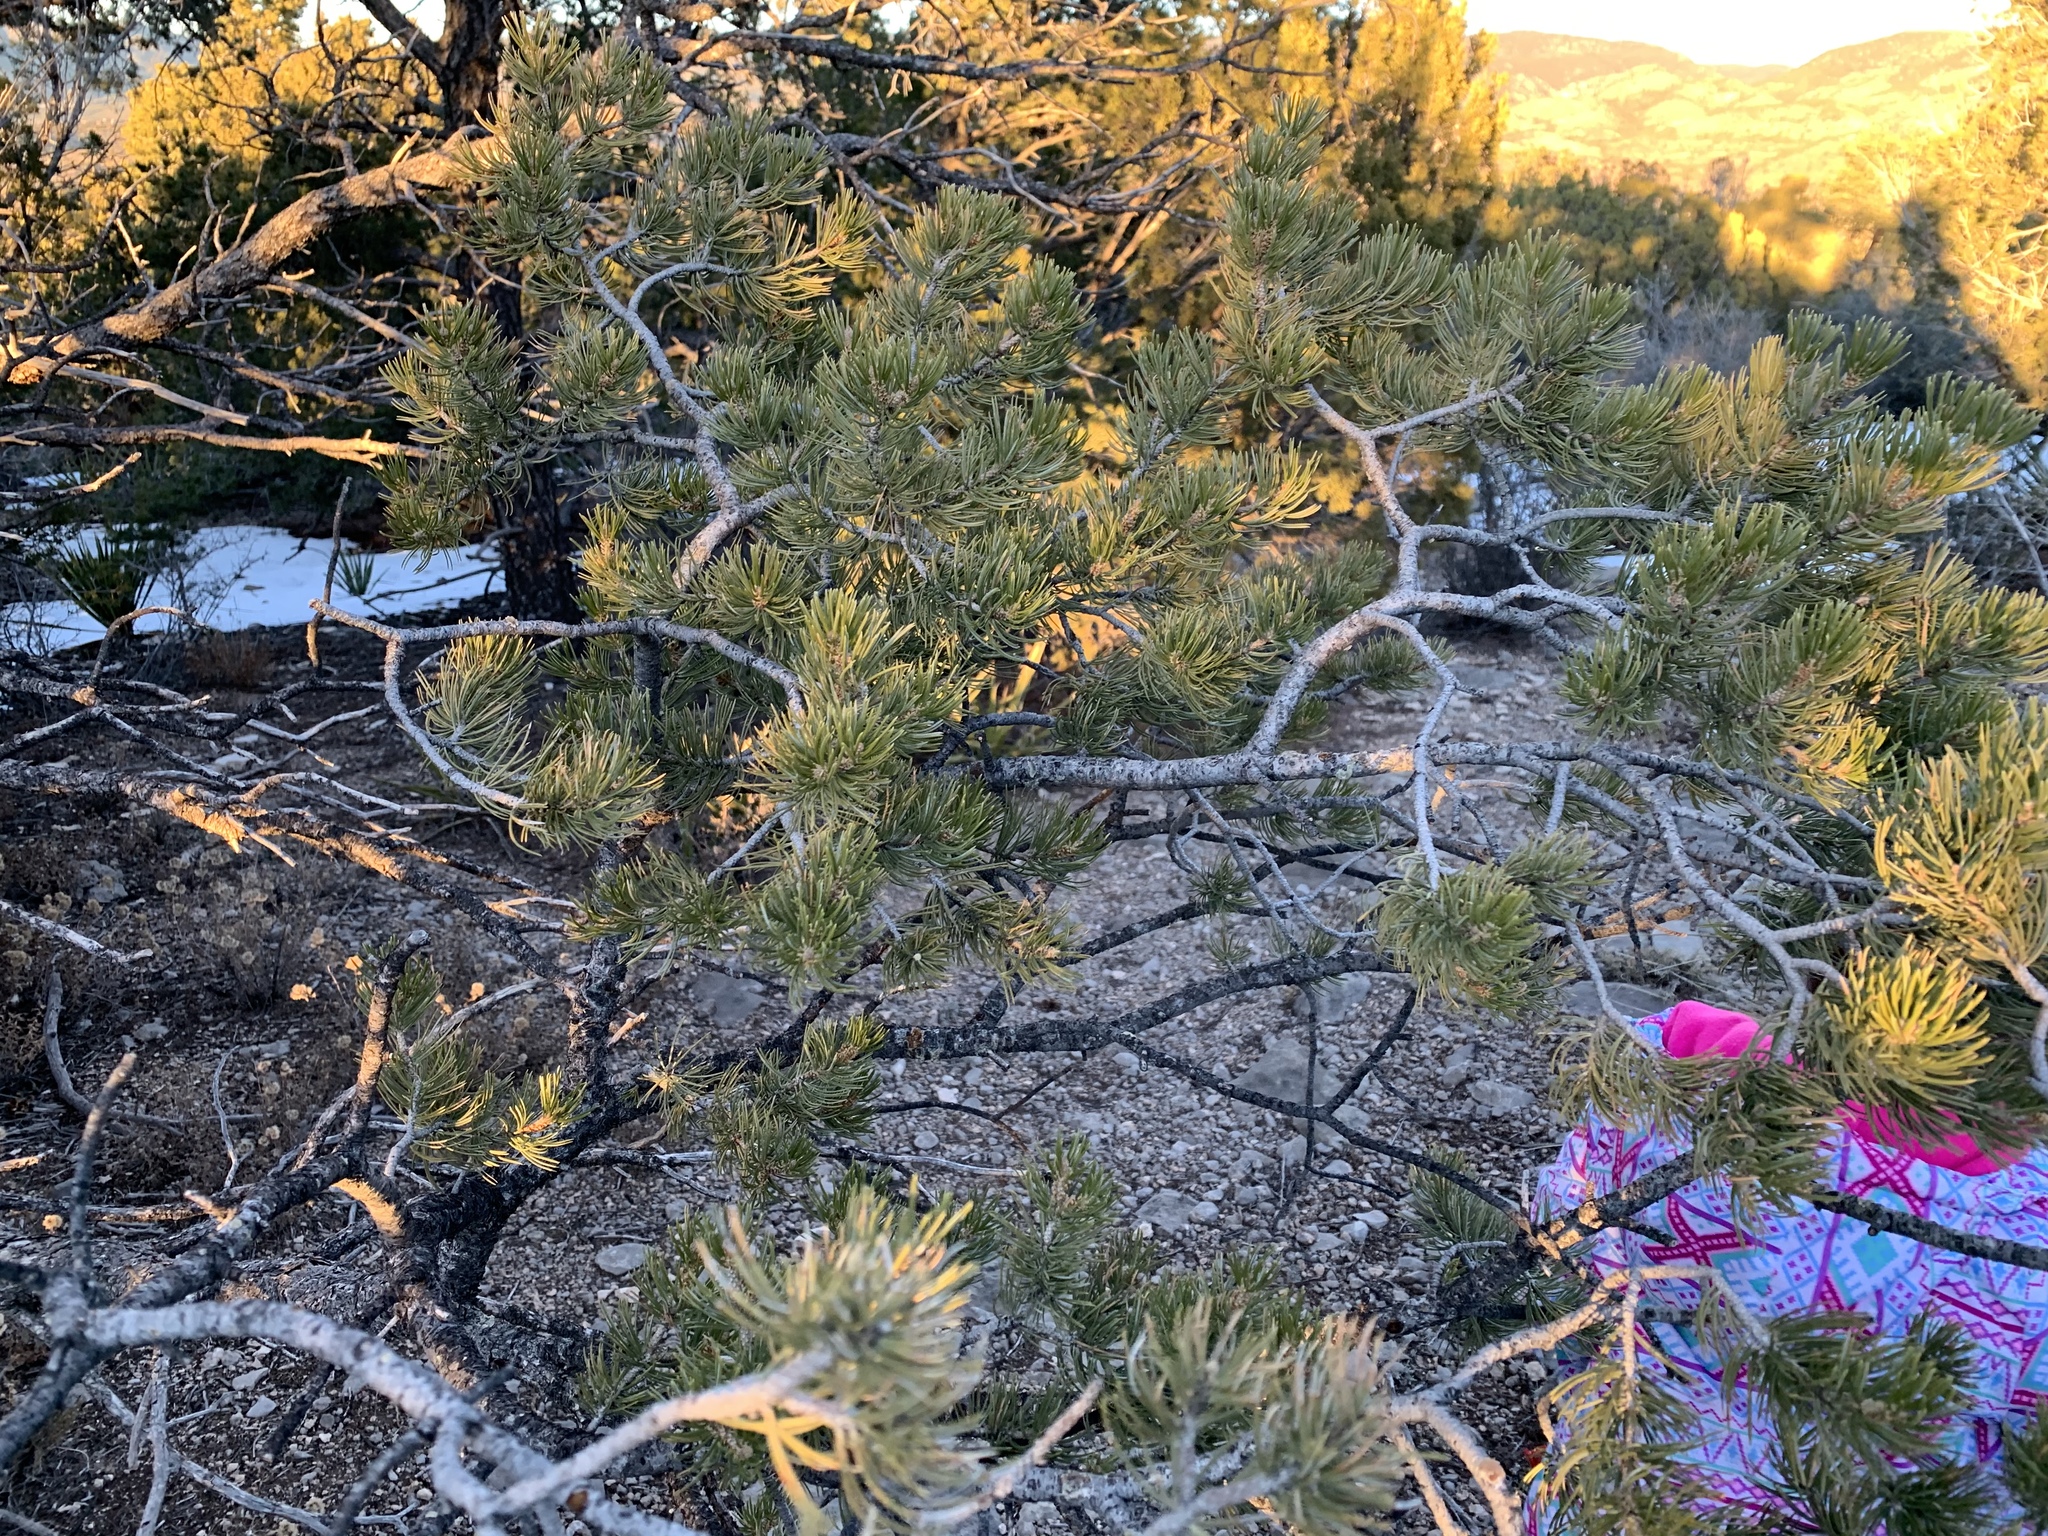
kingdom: Plantae
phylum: Tracheophyta
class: Pinopsida
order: Pinales
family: Pinaceae
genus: Pinus
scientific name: Pinus edulis
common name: Colorado pinyon
